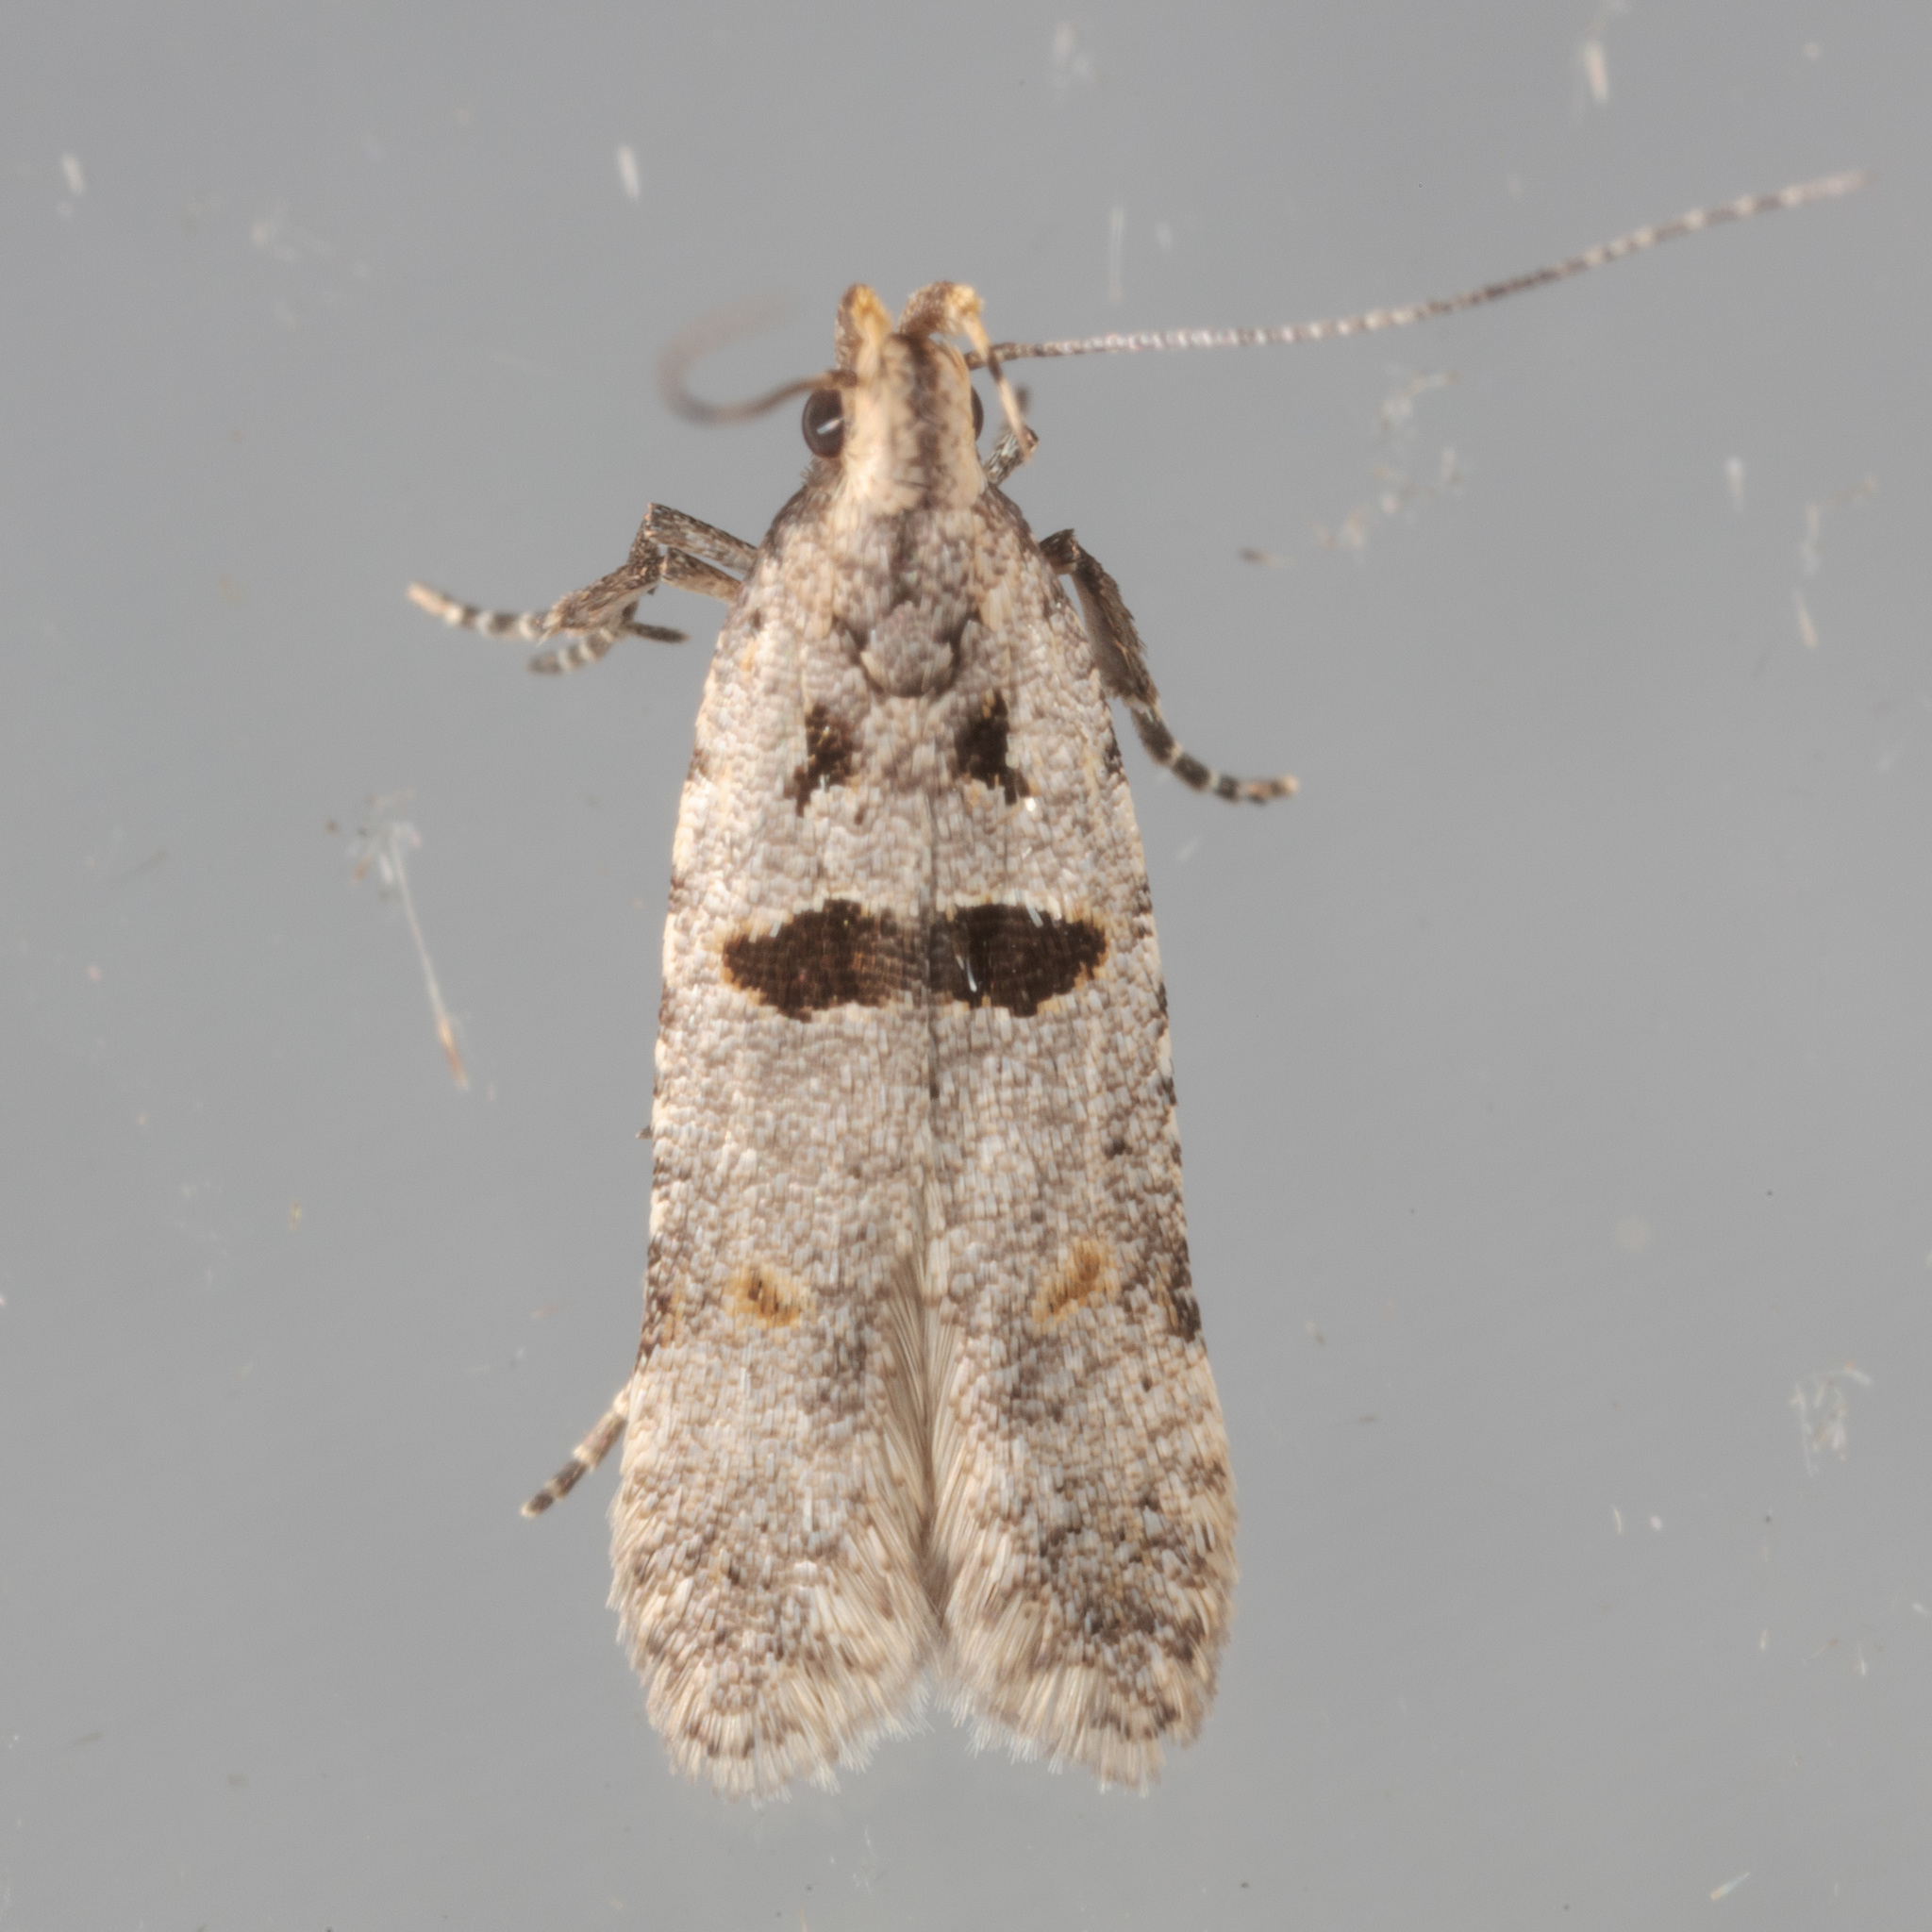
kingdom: Animalia
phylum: Arthropoda
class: Insecta
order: Lepidoptera
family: Gelechiidae
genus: Deltophora
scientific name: Deltophora glandiferella
